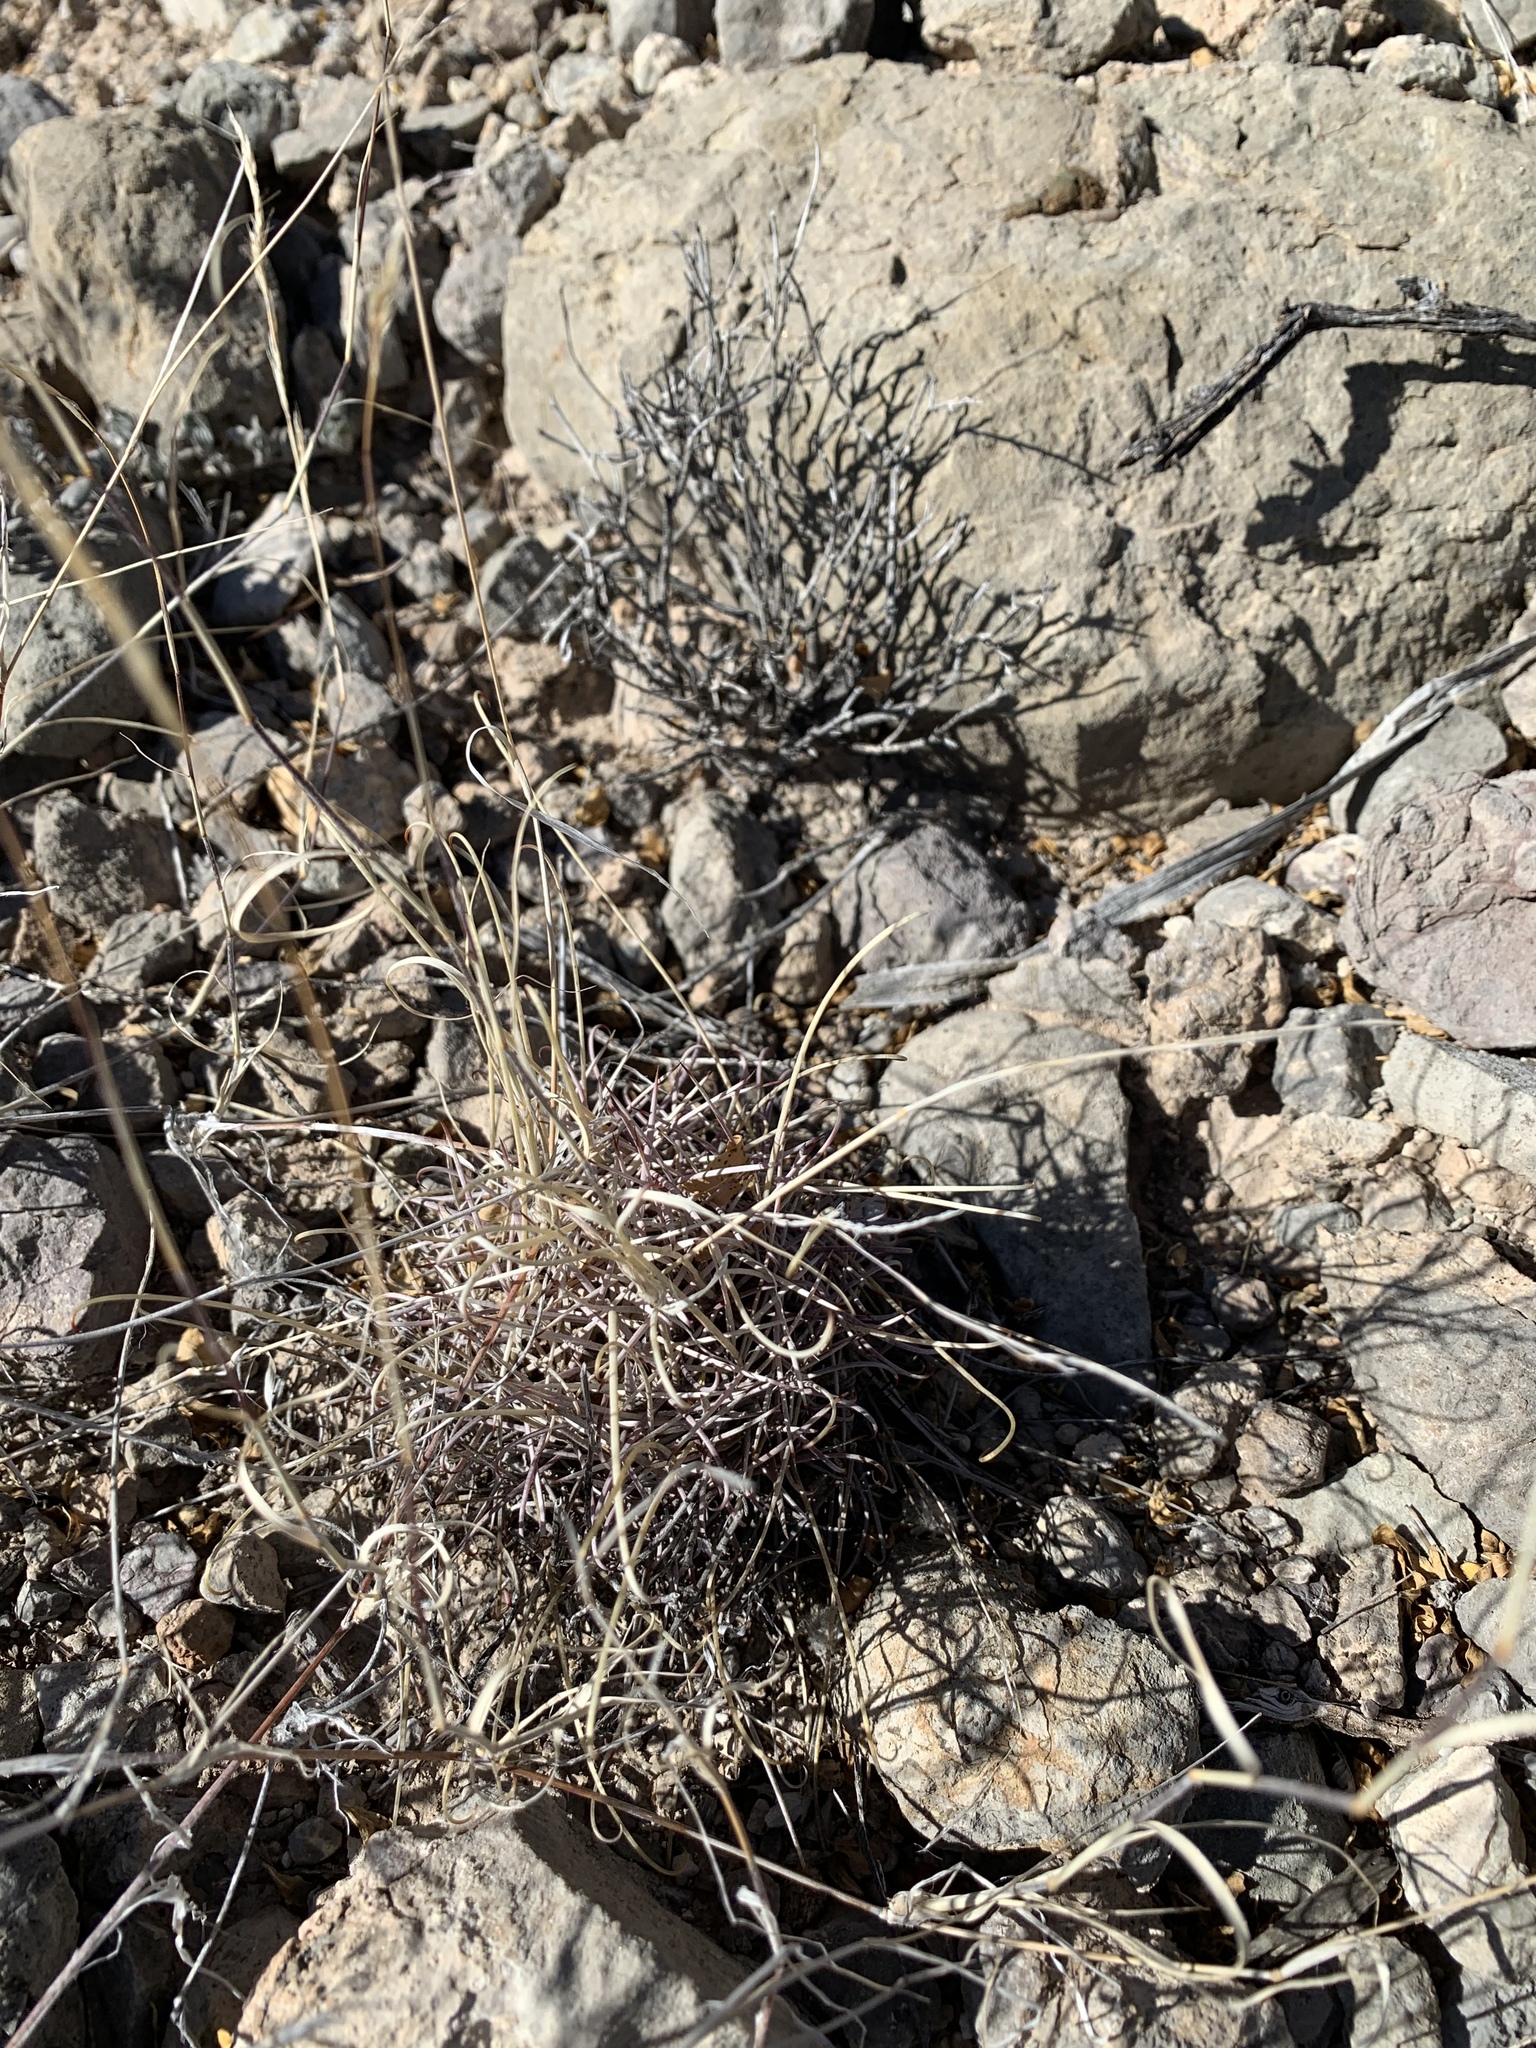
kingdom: Plantae
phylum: Tracheophyta
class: Magnoliopsida
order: Caryophyllales
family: Cactaceae
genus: Ferocactus
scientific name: Ferocactus uncinatus
